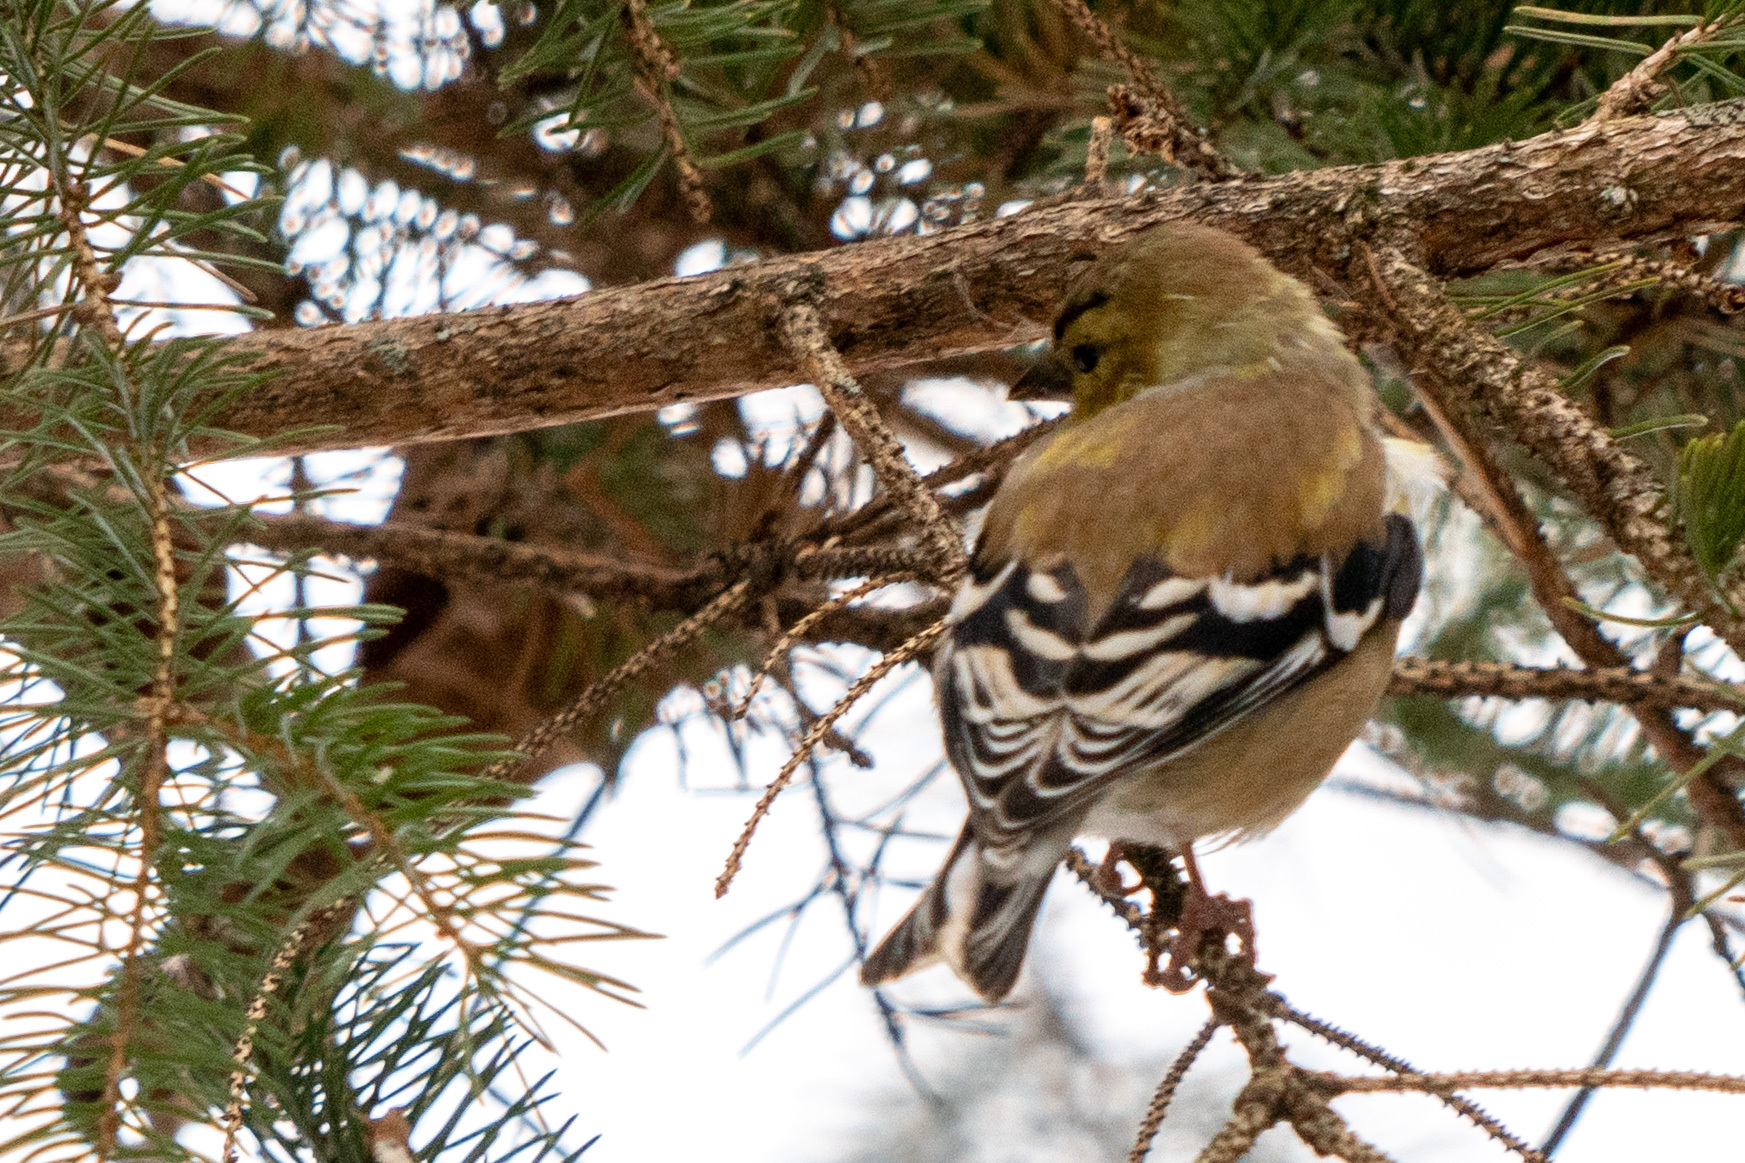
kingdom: Animalia
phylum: Chordata
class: Aves
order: Passeriformes
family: Fringillidae
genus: Spinus
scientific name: Spinus tristis
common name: American goldfinch
